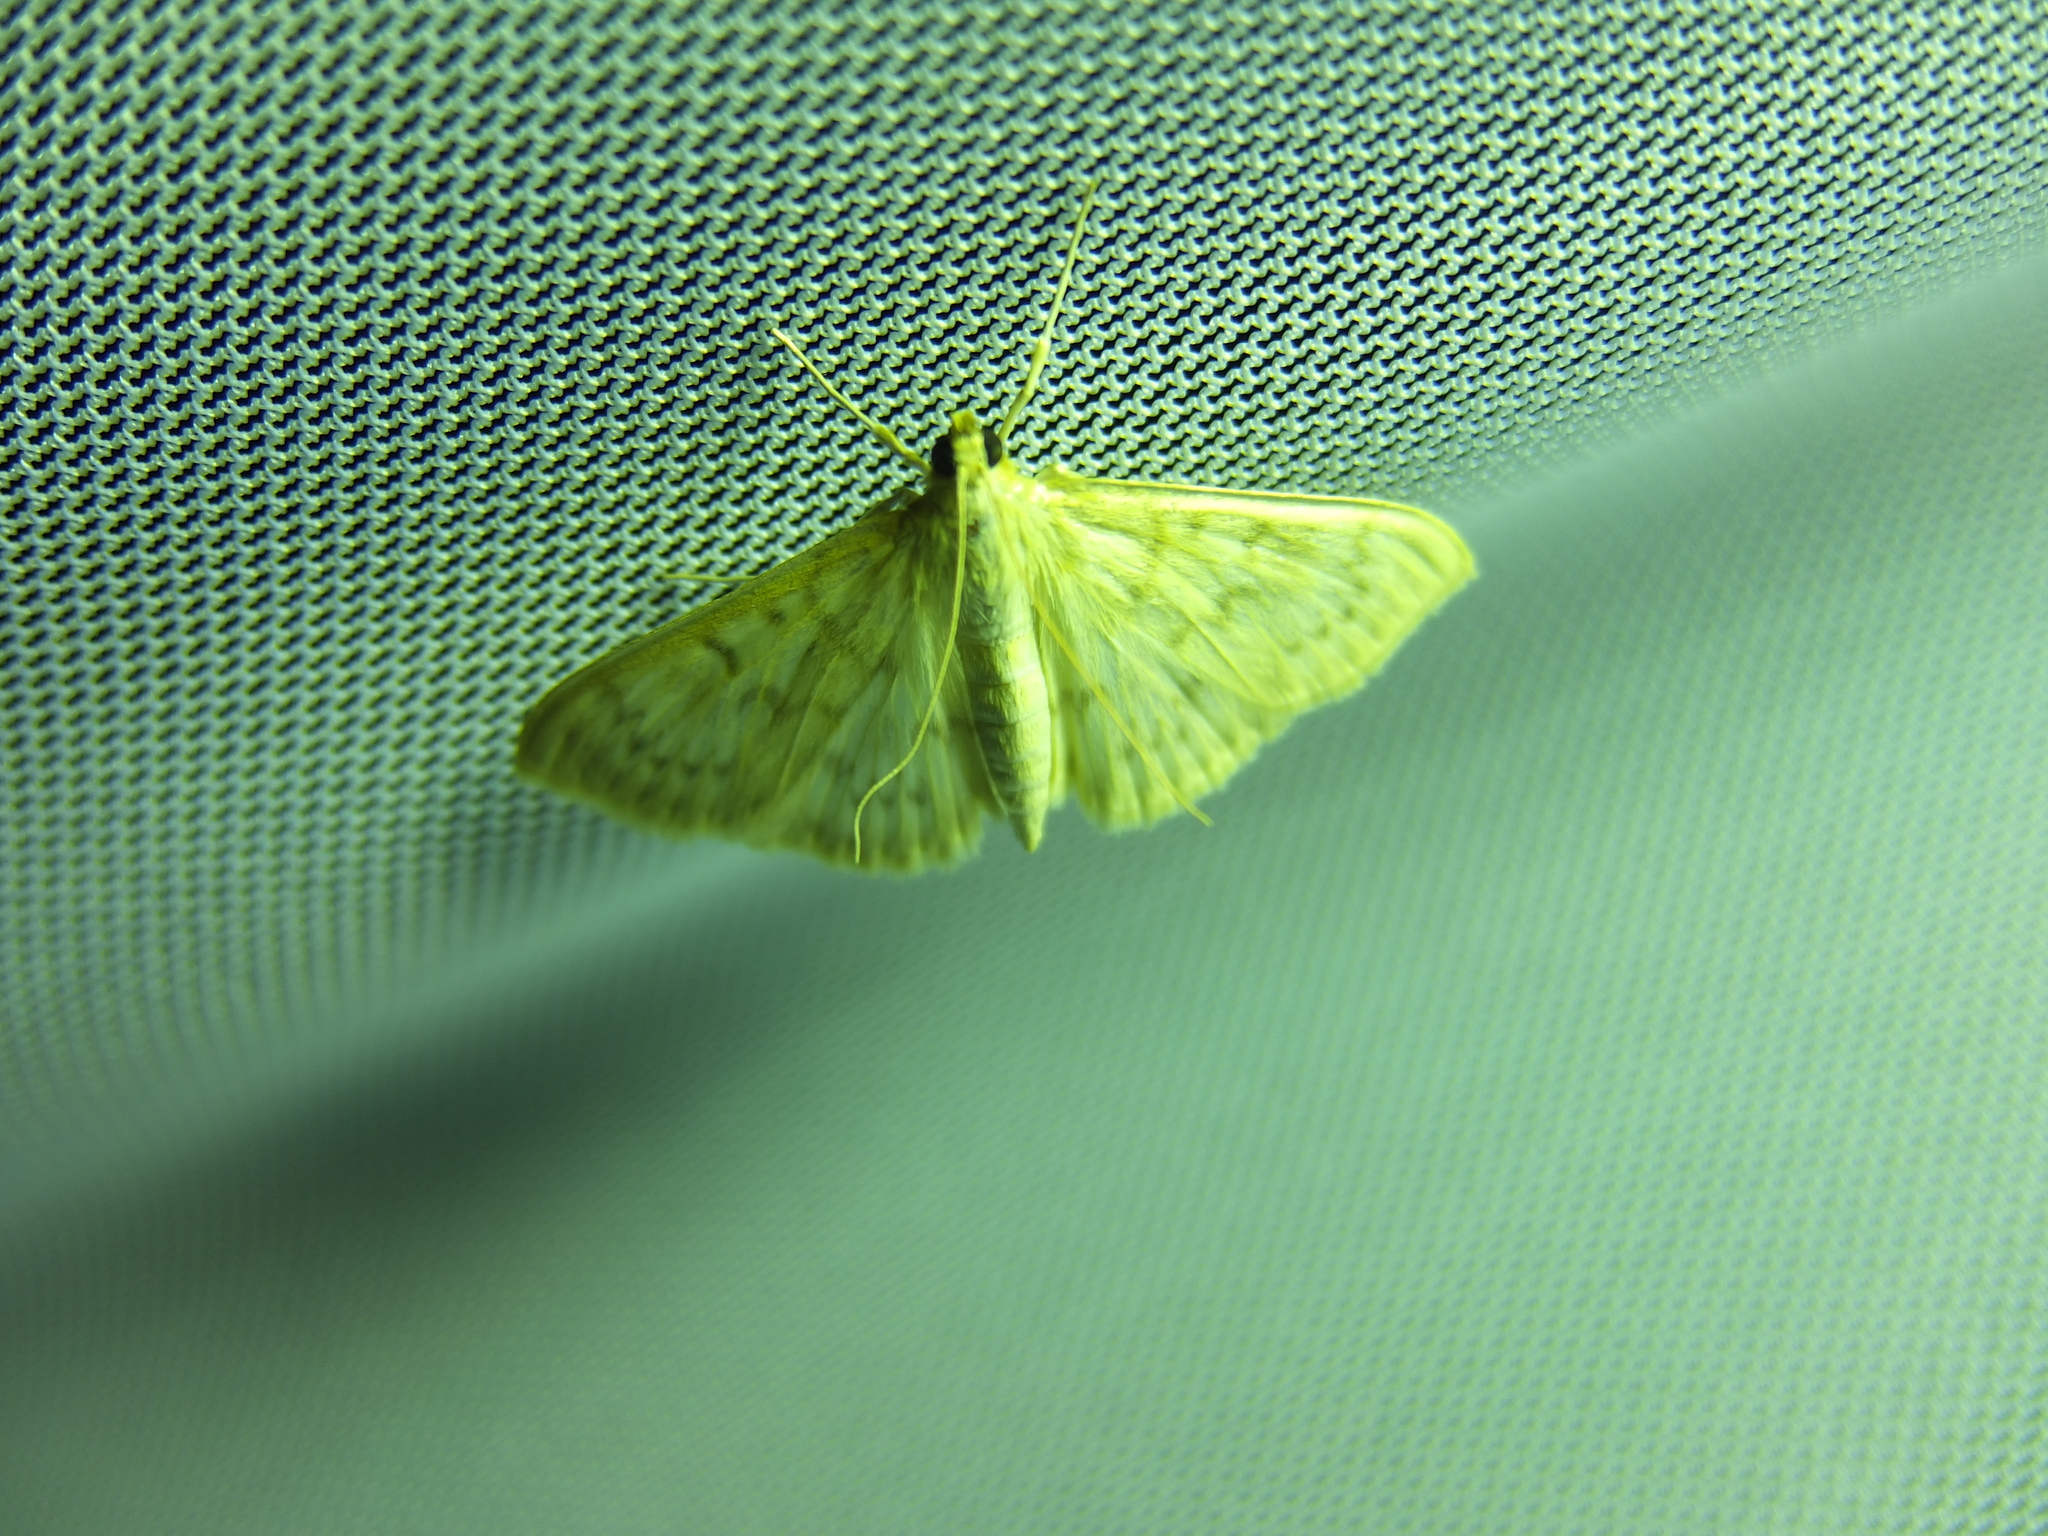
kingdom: Animalia
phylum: Arthropoda
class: Insecta
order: Lepidoptera
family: Crambidae
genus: Patania
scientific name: Patania ruralis
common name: Mother of pearl
